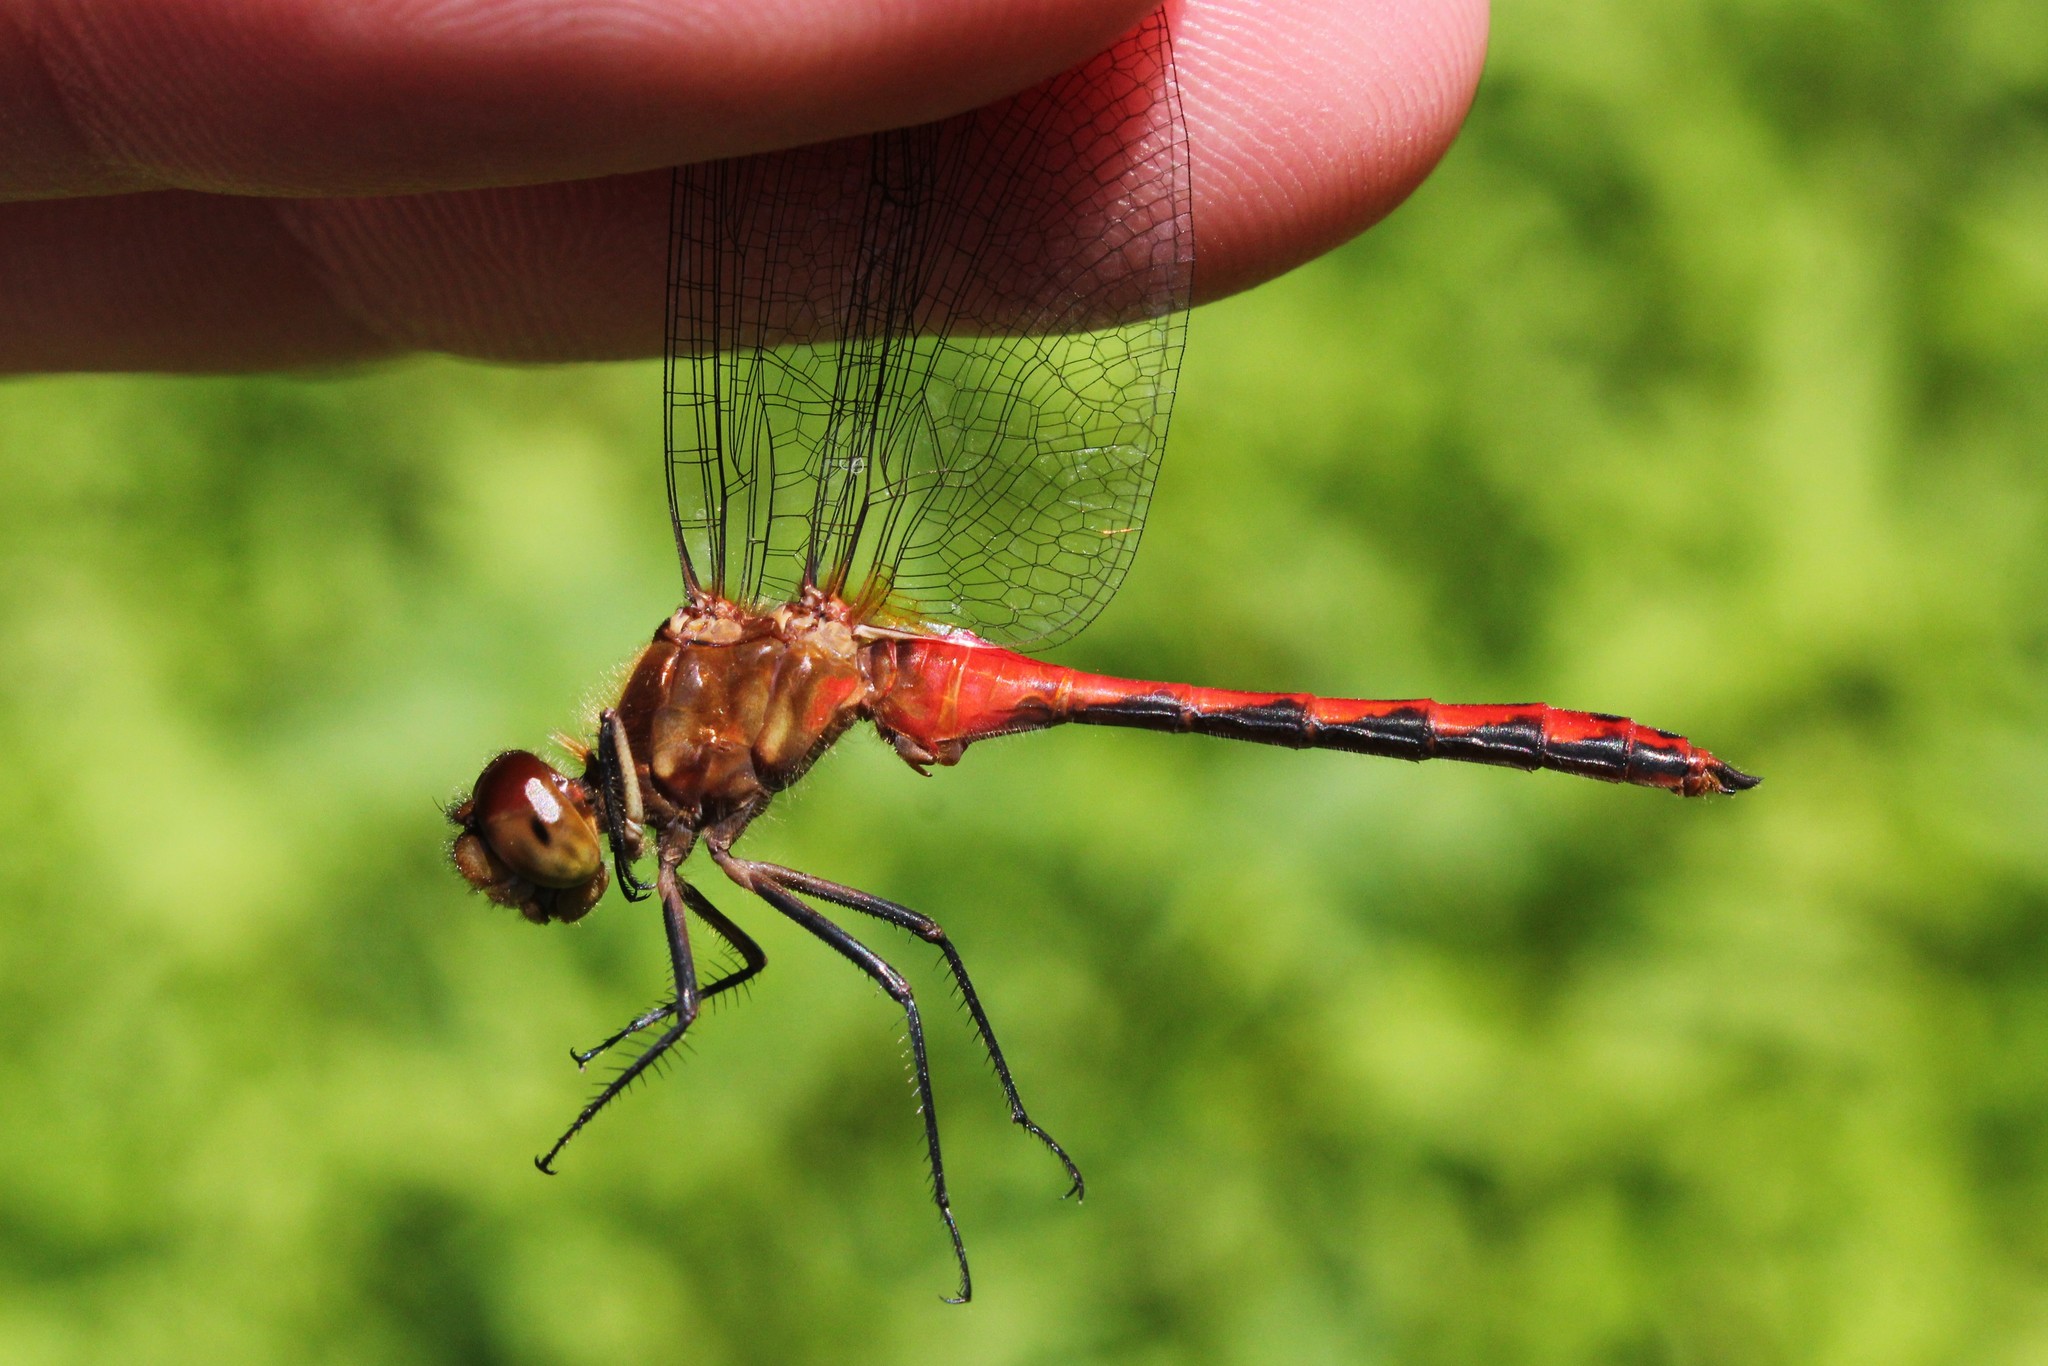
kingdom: Animalia
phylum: Arthropoda
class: Insecta
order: Odonata
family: Libellulidae
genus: Sympetrum
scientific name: Sympetrum rubicundulum
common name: Ruby meadowhawk
